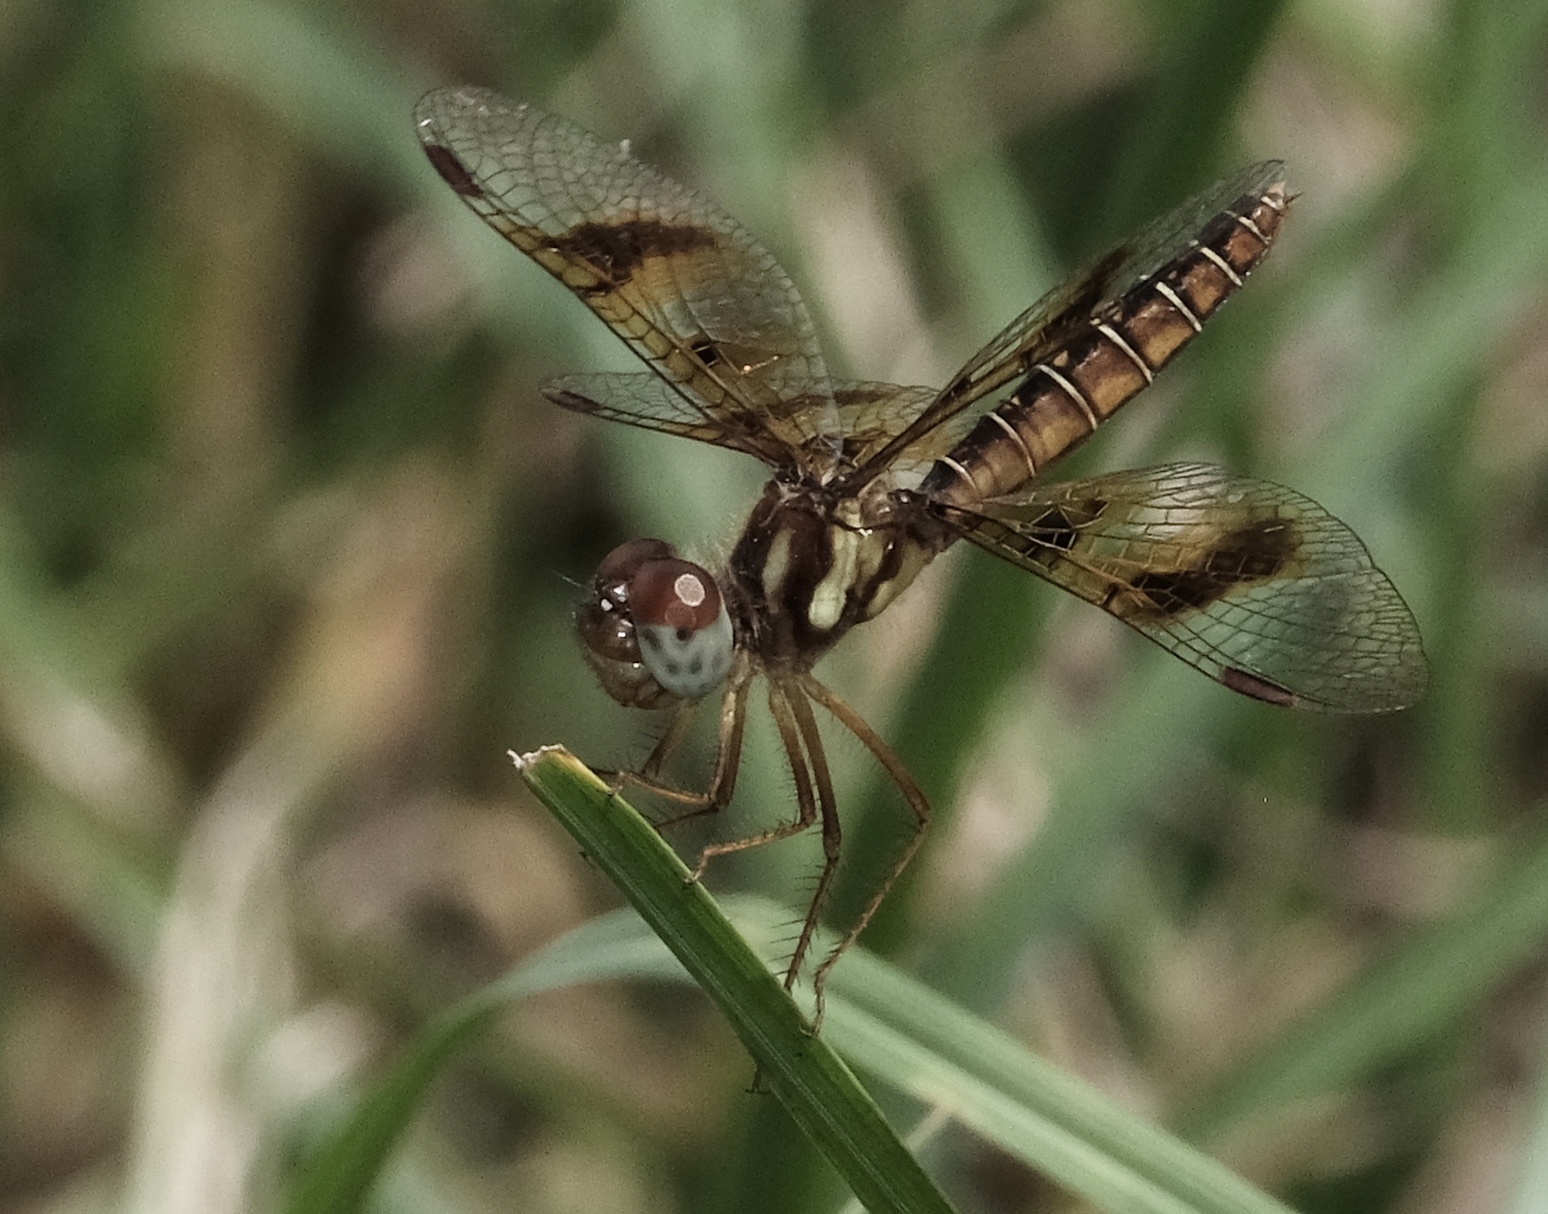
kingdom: Animalia
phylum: Arthropoda
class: Insecta
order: Odonata
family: Libellulidae
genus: Perithemis
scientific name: Perithemis tenera
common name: Eastern amberwing
